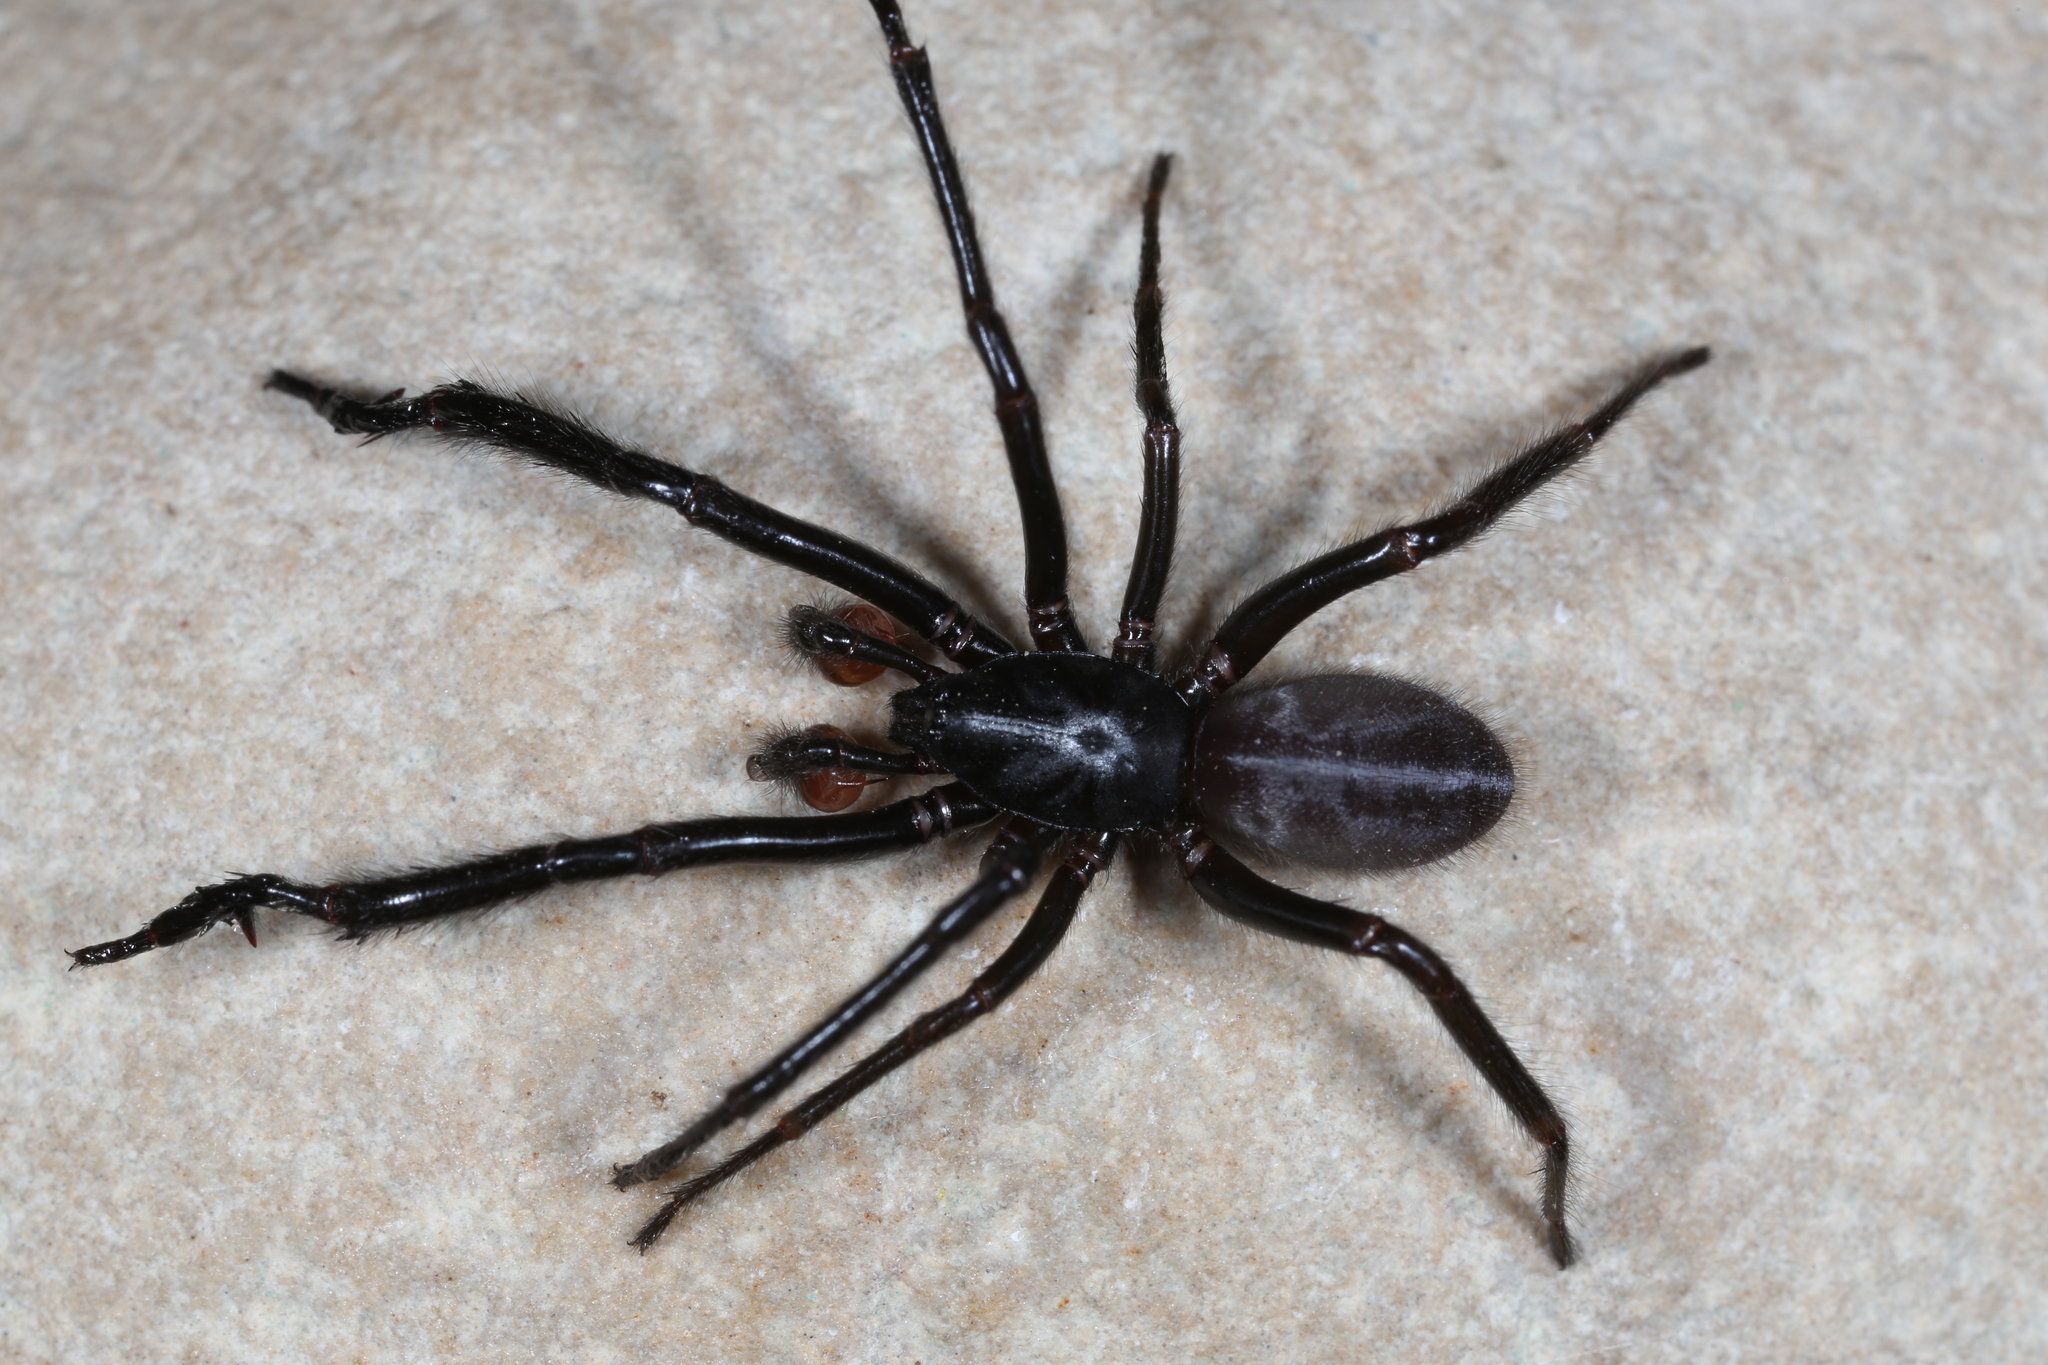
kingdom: Animalia
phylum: Arthropoda
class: Arachnida
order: Araneae
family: Segestriidae
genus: Ariadna
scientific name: Ariadna pilifera
